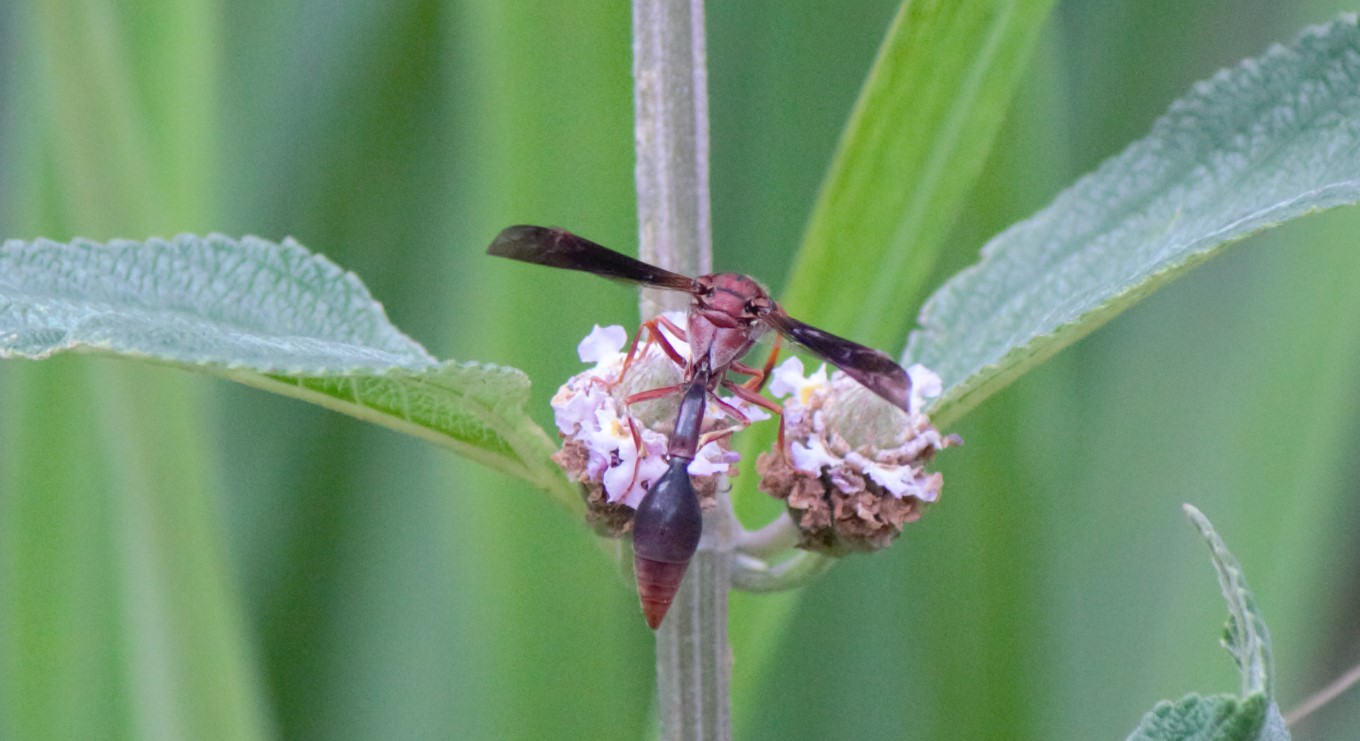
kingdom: Animalia
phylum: Arthropoda
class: Insecta
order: Hymenoptera
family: Eumenidae
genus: Zeta
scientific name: Zeta argillaceum
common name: Potter wasp
